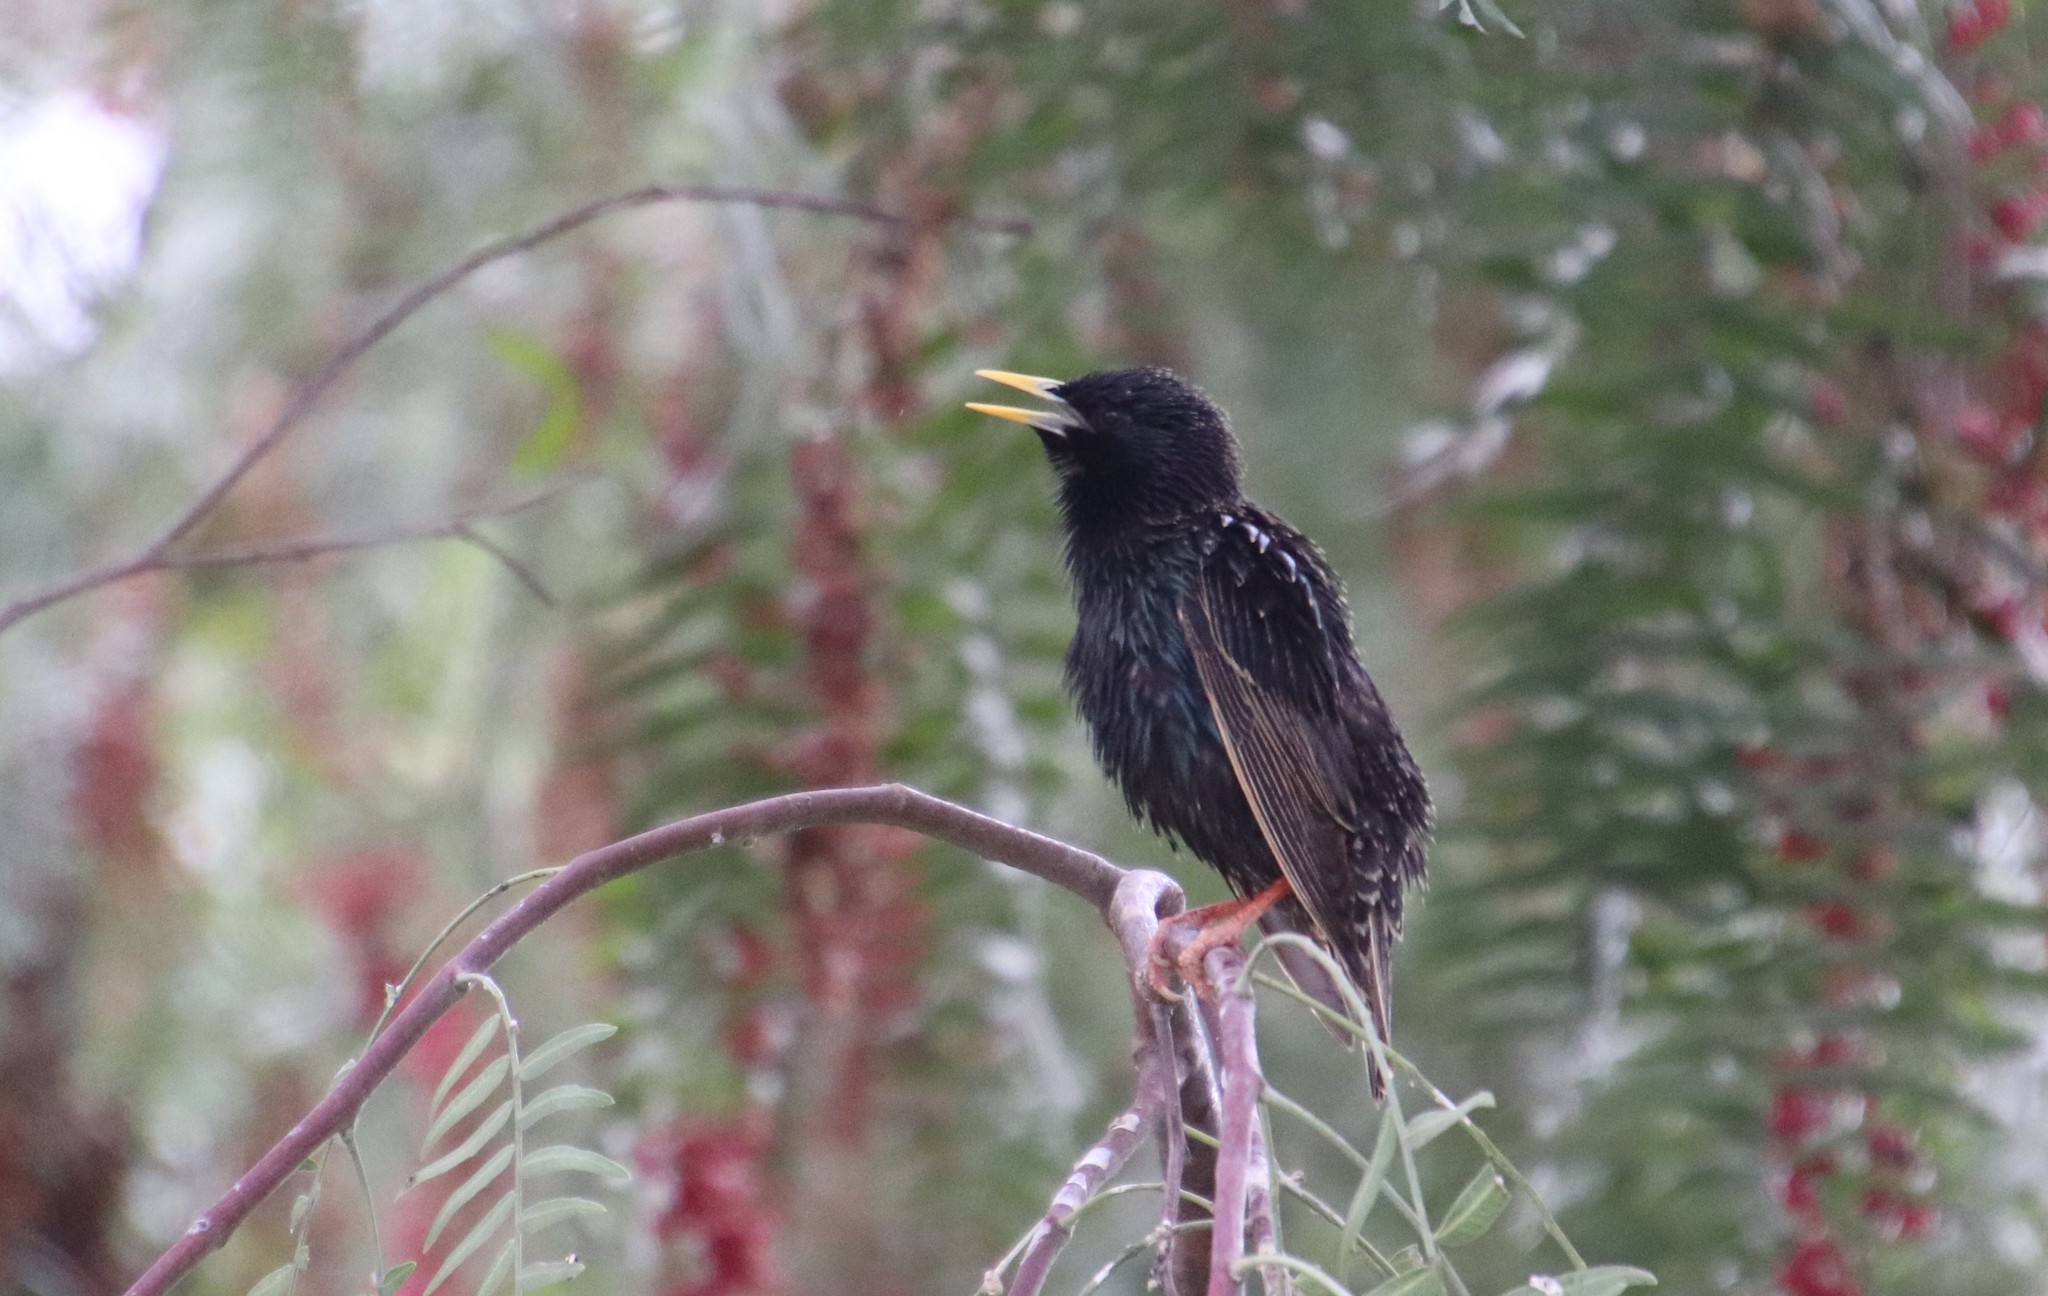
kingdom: Animalia
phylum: Chordata
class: Aves
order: Passeriformes
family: Sturnidae
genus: Sturnus
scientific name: Sturnus vulgaris
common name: Common starling
